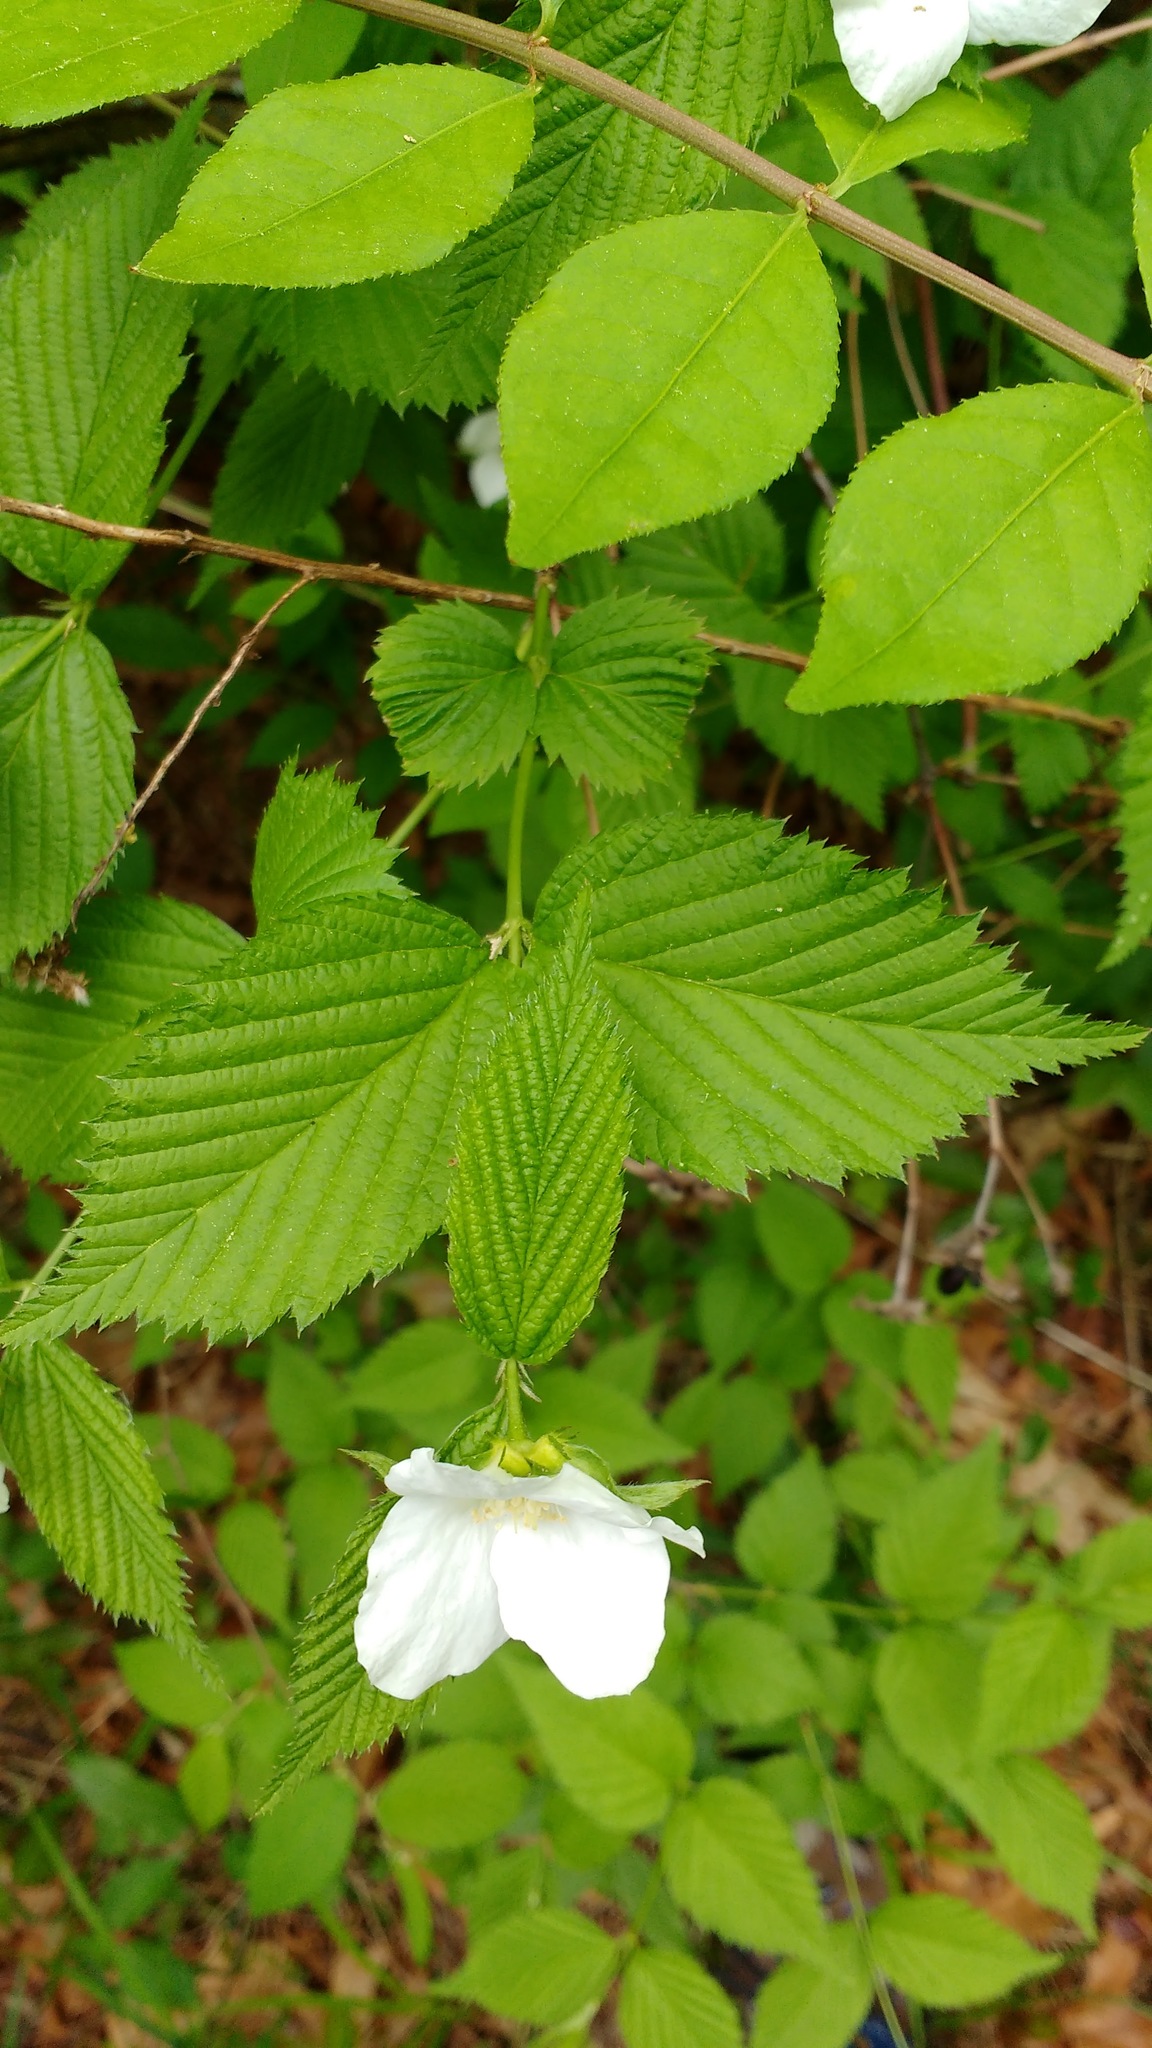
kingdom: Plantae
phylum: Tracheophyta
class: Magnoliopsida
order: Rosales
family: Rosaceae
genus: Rhodotypos
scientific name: Rhodotypos scandens
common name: Jetbead
